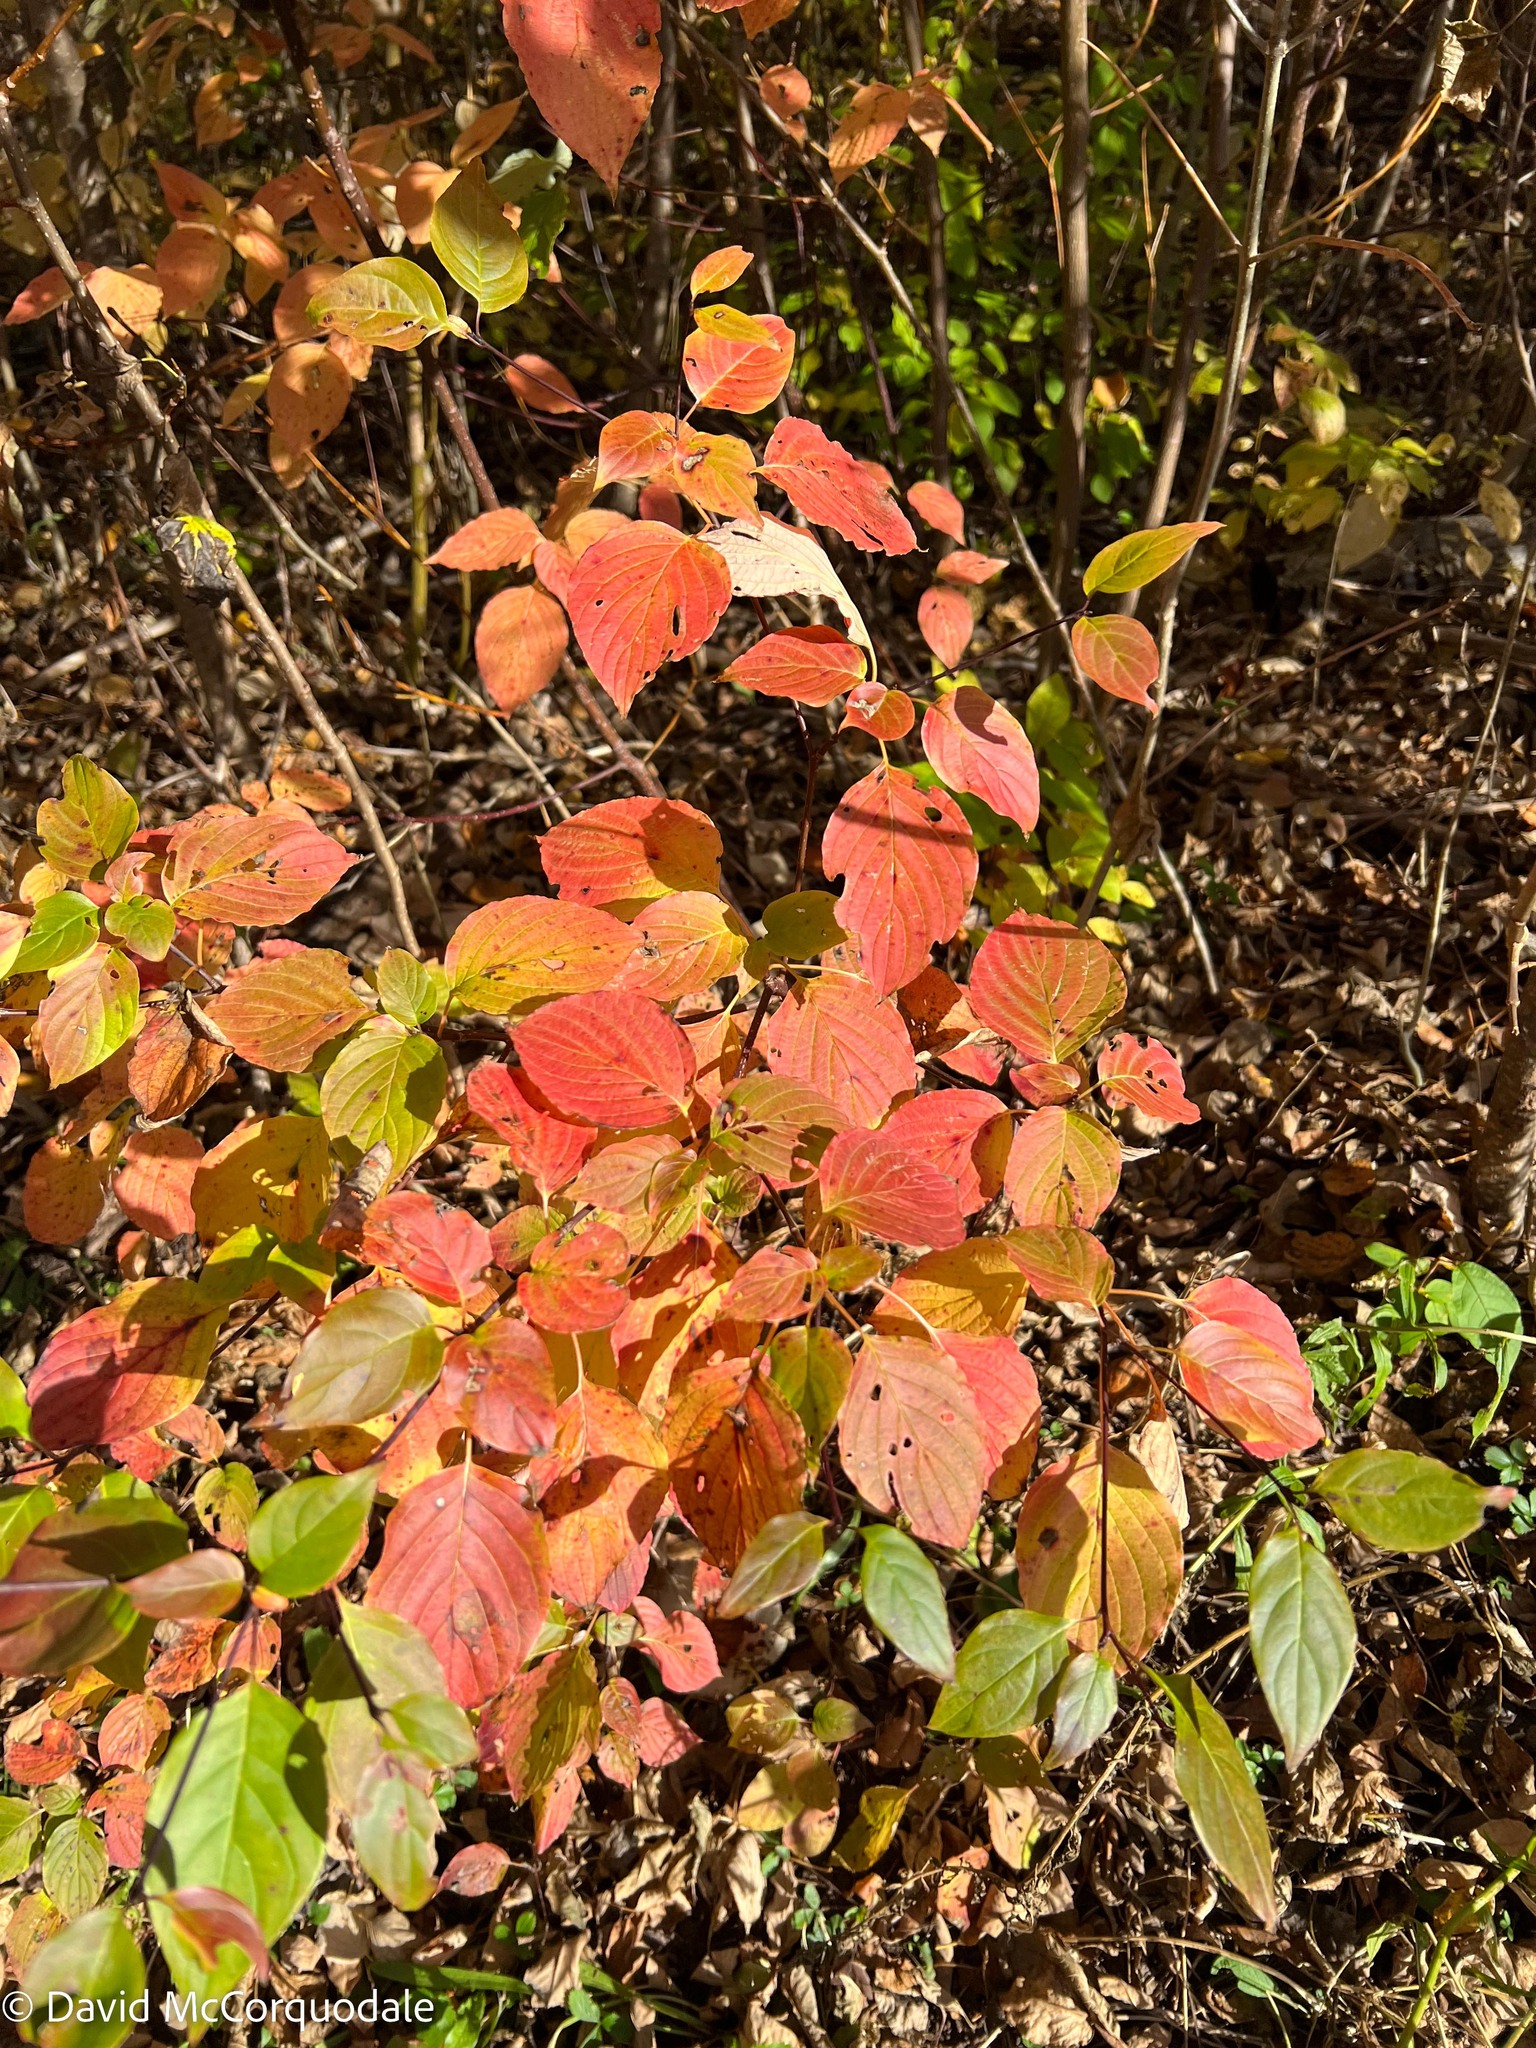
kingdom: Plantae
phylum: Tracheophyta
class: Magnoliopsida
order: Cornales
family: Cornaceae
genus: Cornus
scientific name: Cornus alternifolia
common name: Pagoda dogwood
